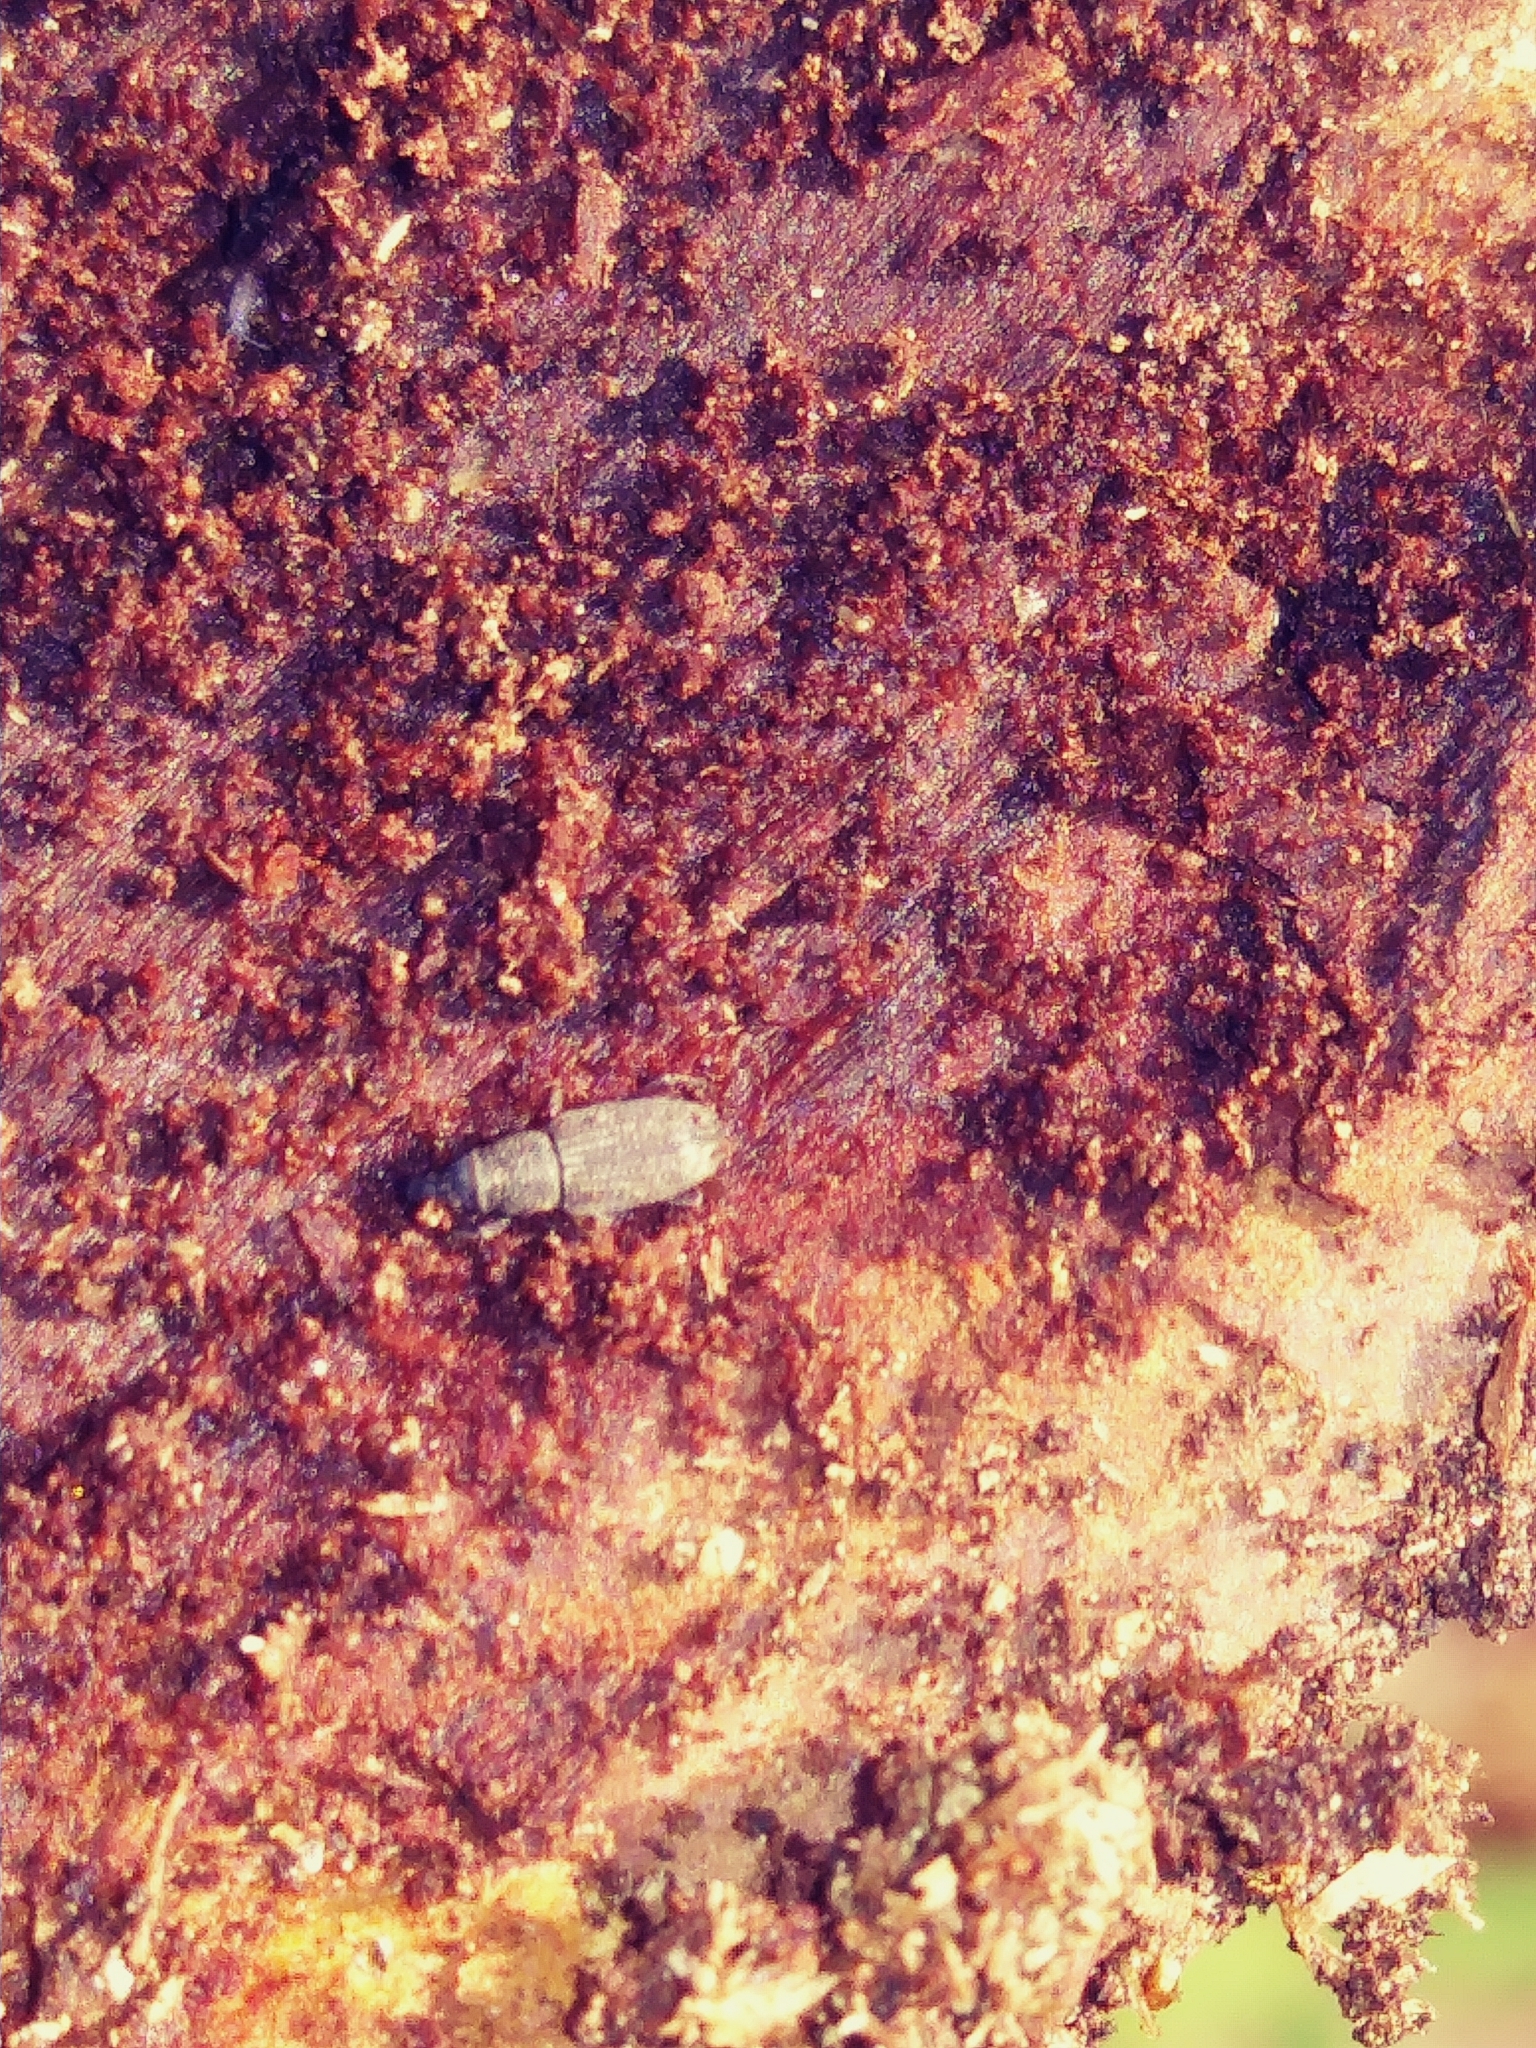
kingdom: Animalia
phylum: Arthropoda
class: Insecta
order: Coleoptera
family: Dryophthoridae
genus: Dryophthorus
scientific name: Dryophthorus americanus
